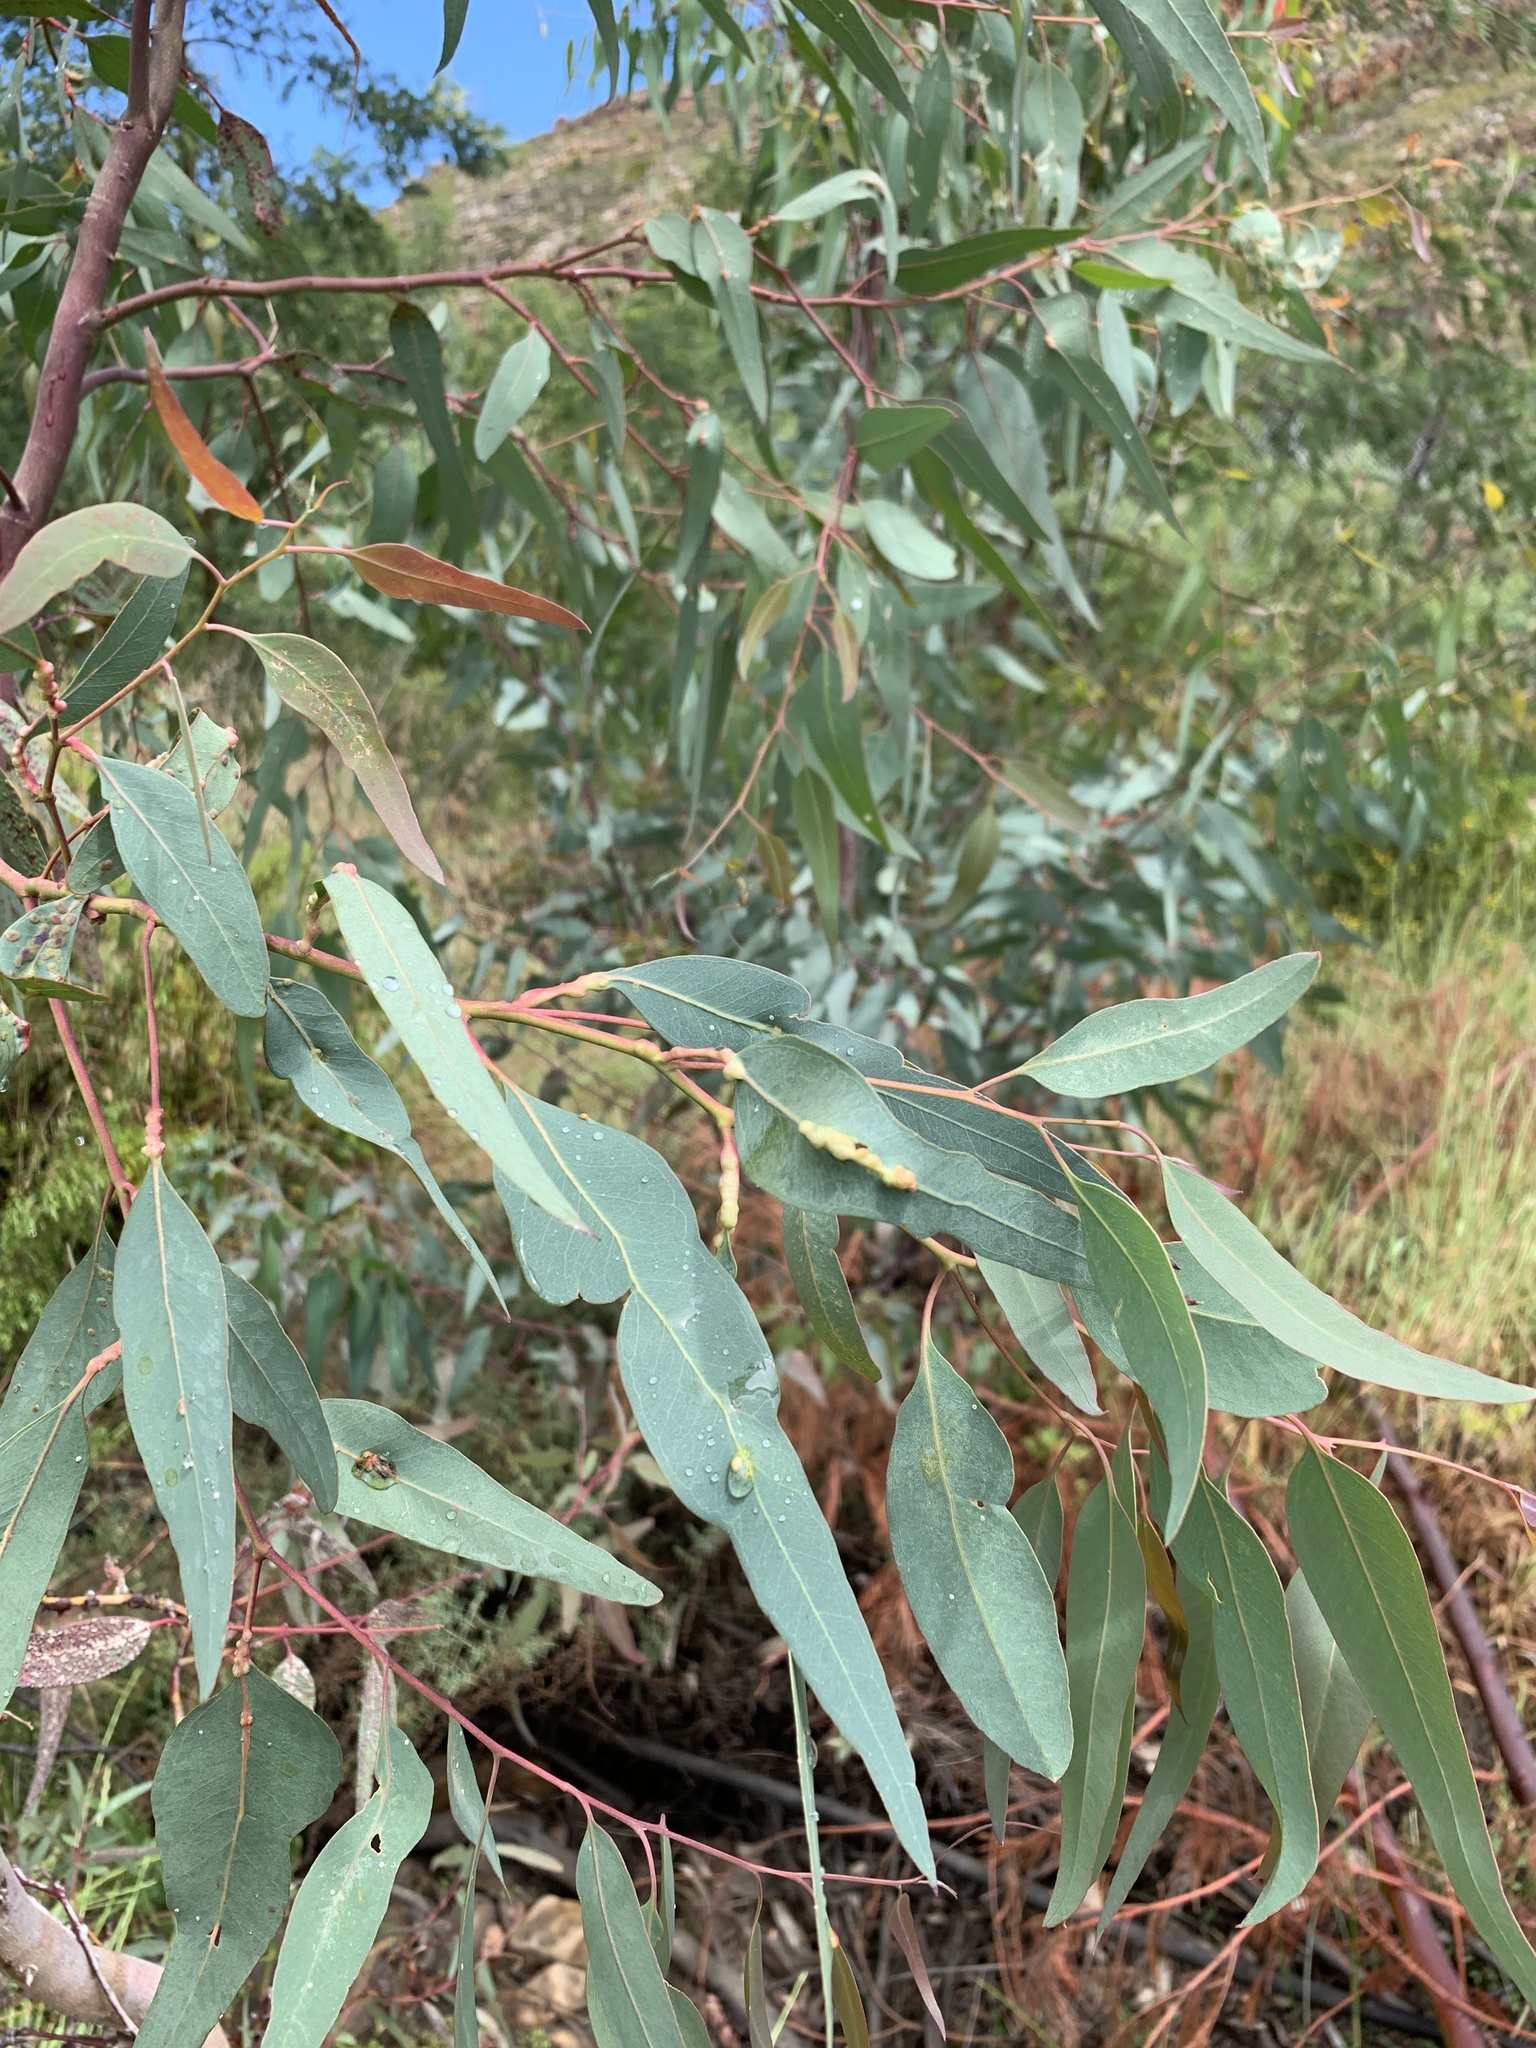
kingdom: Animalia
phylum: Arthropoda
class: Insecta
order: Hymenoptera
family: Eulophidae
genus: Leptocybe
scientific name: Leptocybe invasa
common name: Gall wasp
